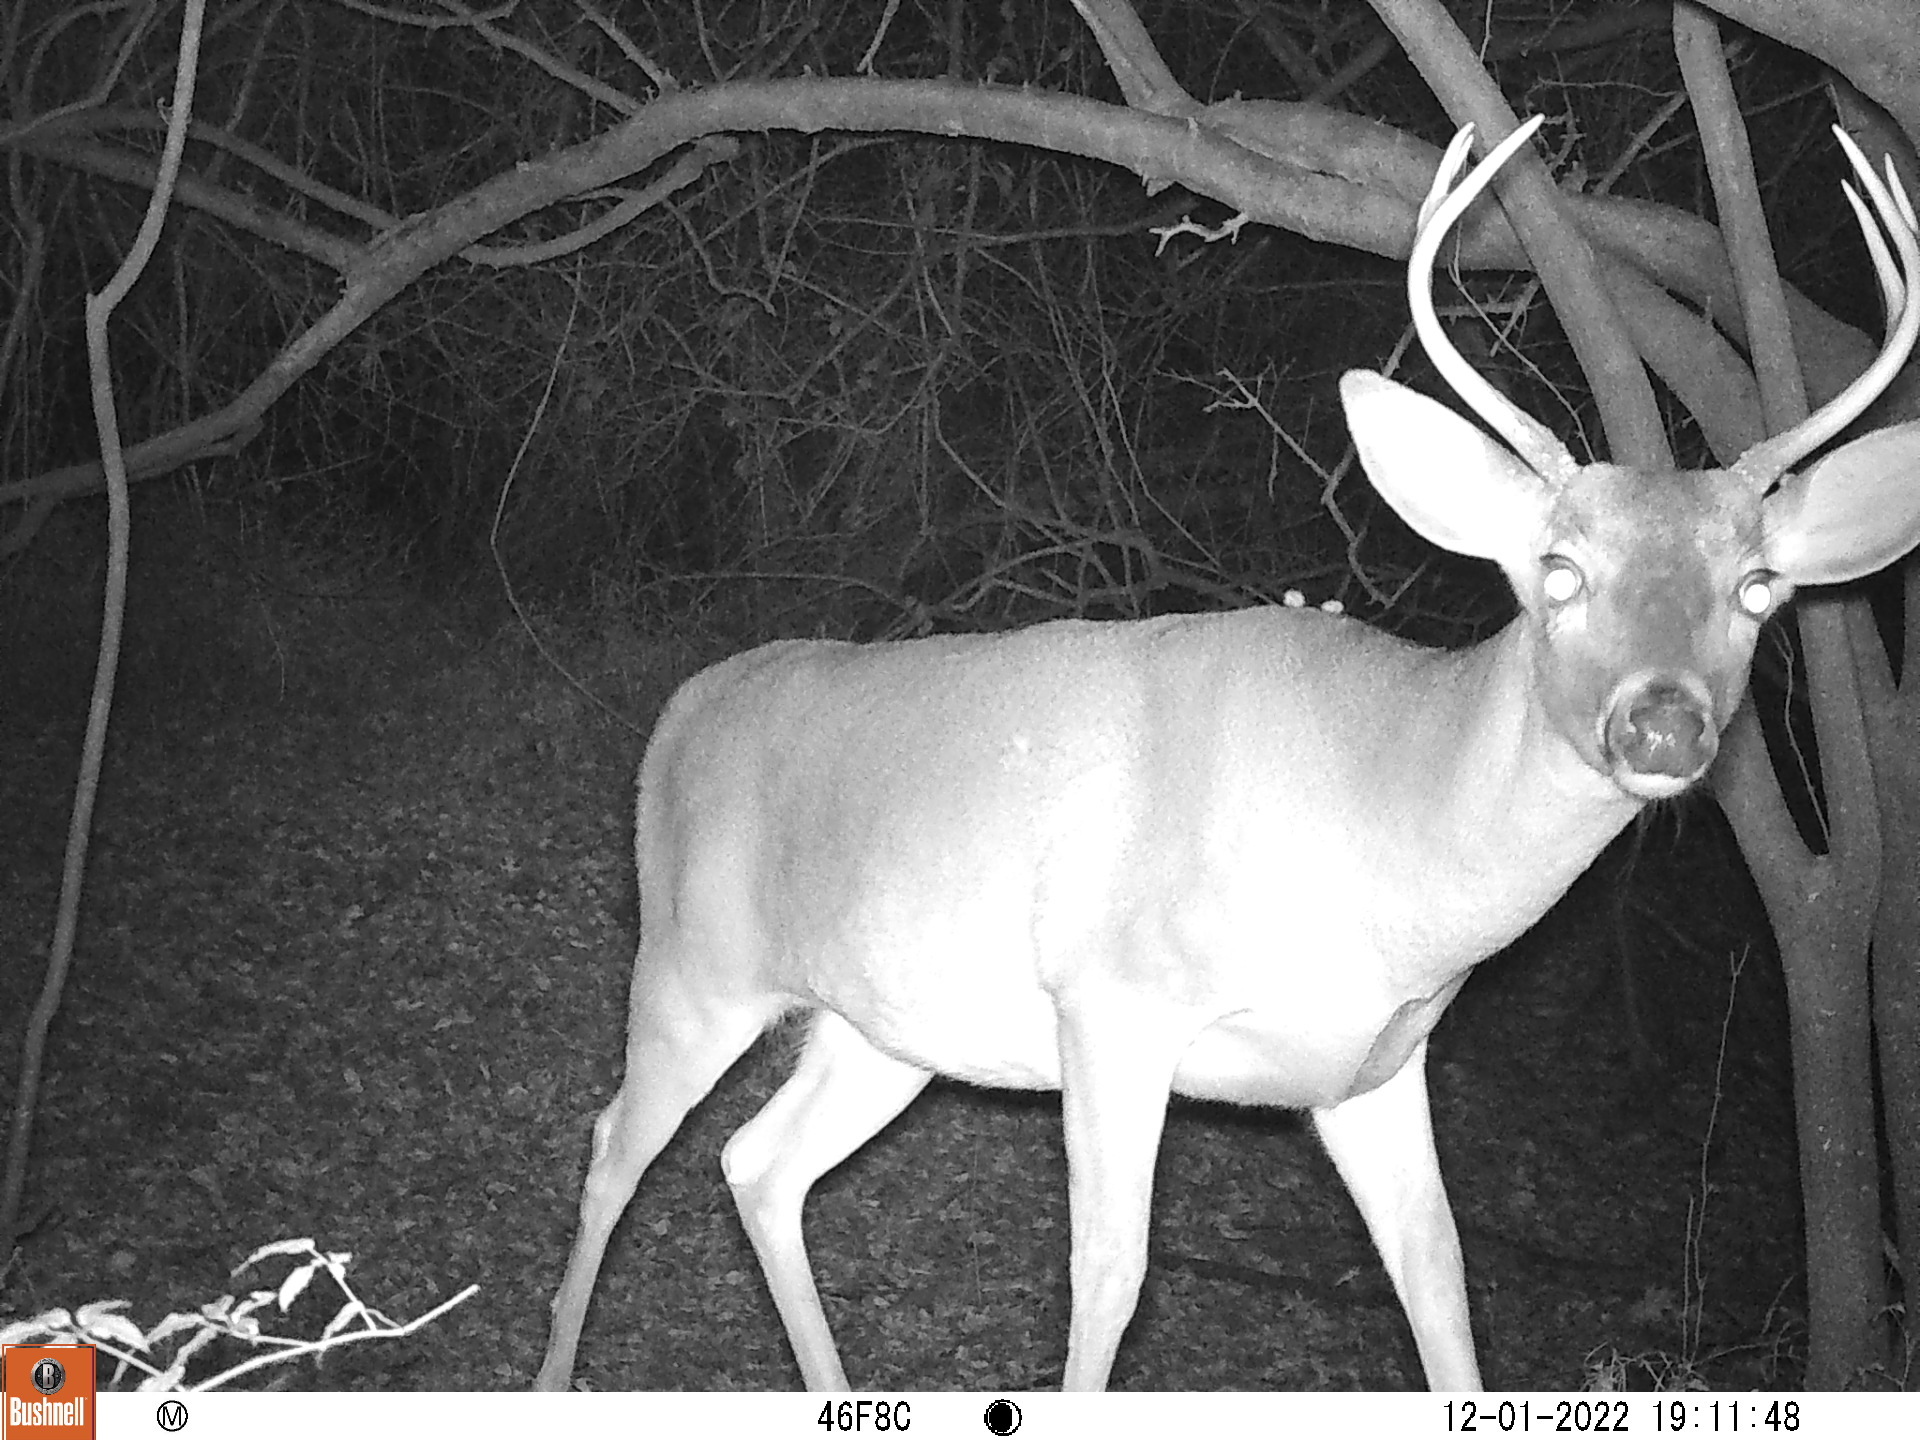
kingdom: Animalia
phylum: Chordata
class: Mammalia
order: Artiodactyla
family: Cervidae
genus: Odocoileus
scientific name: Odocoileus virginianus
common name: White-tailed deer
